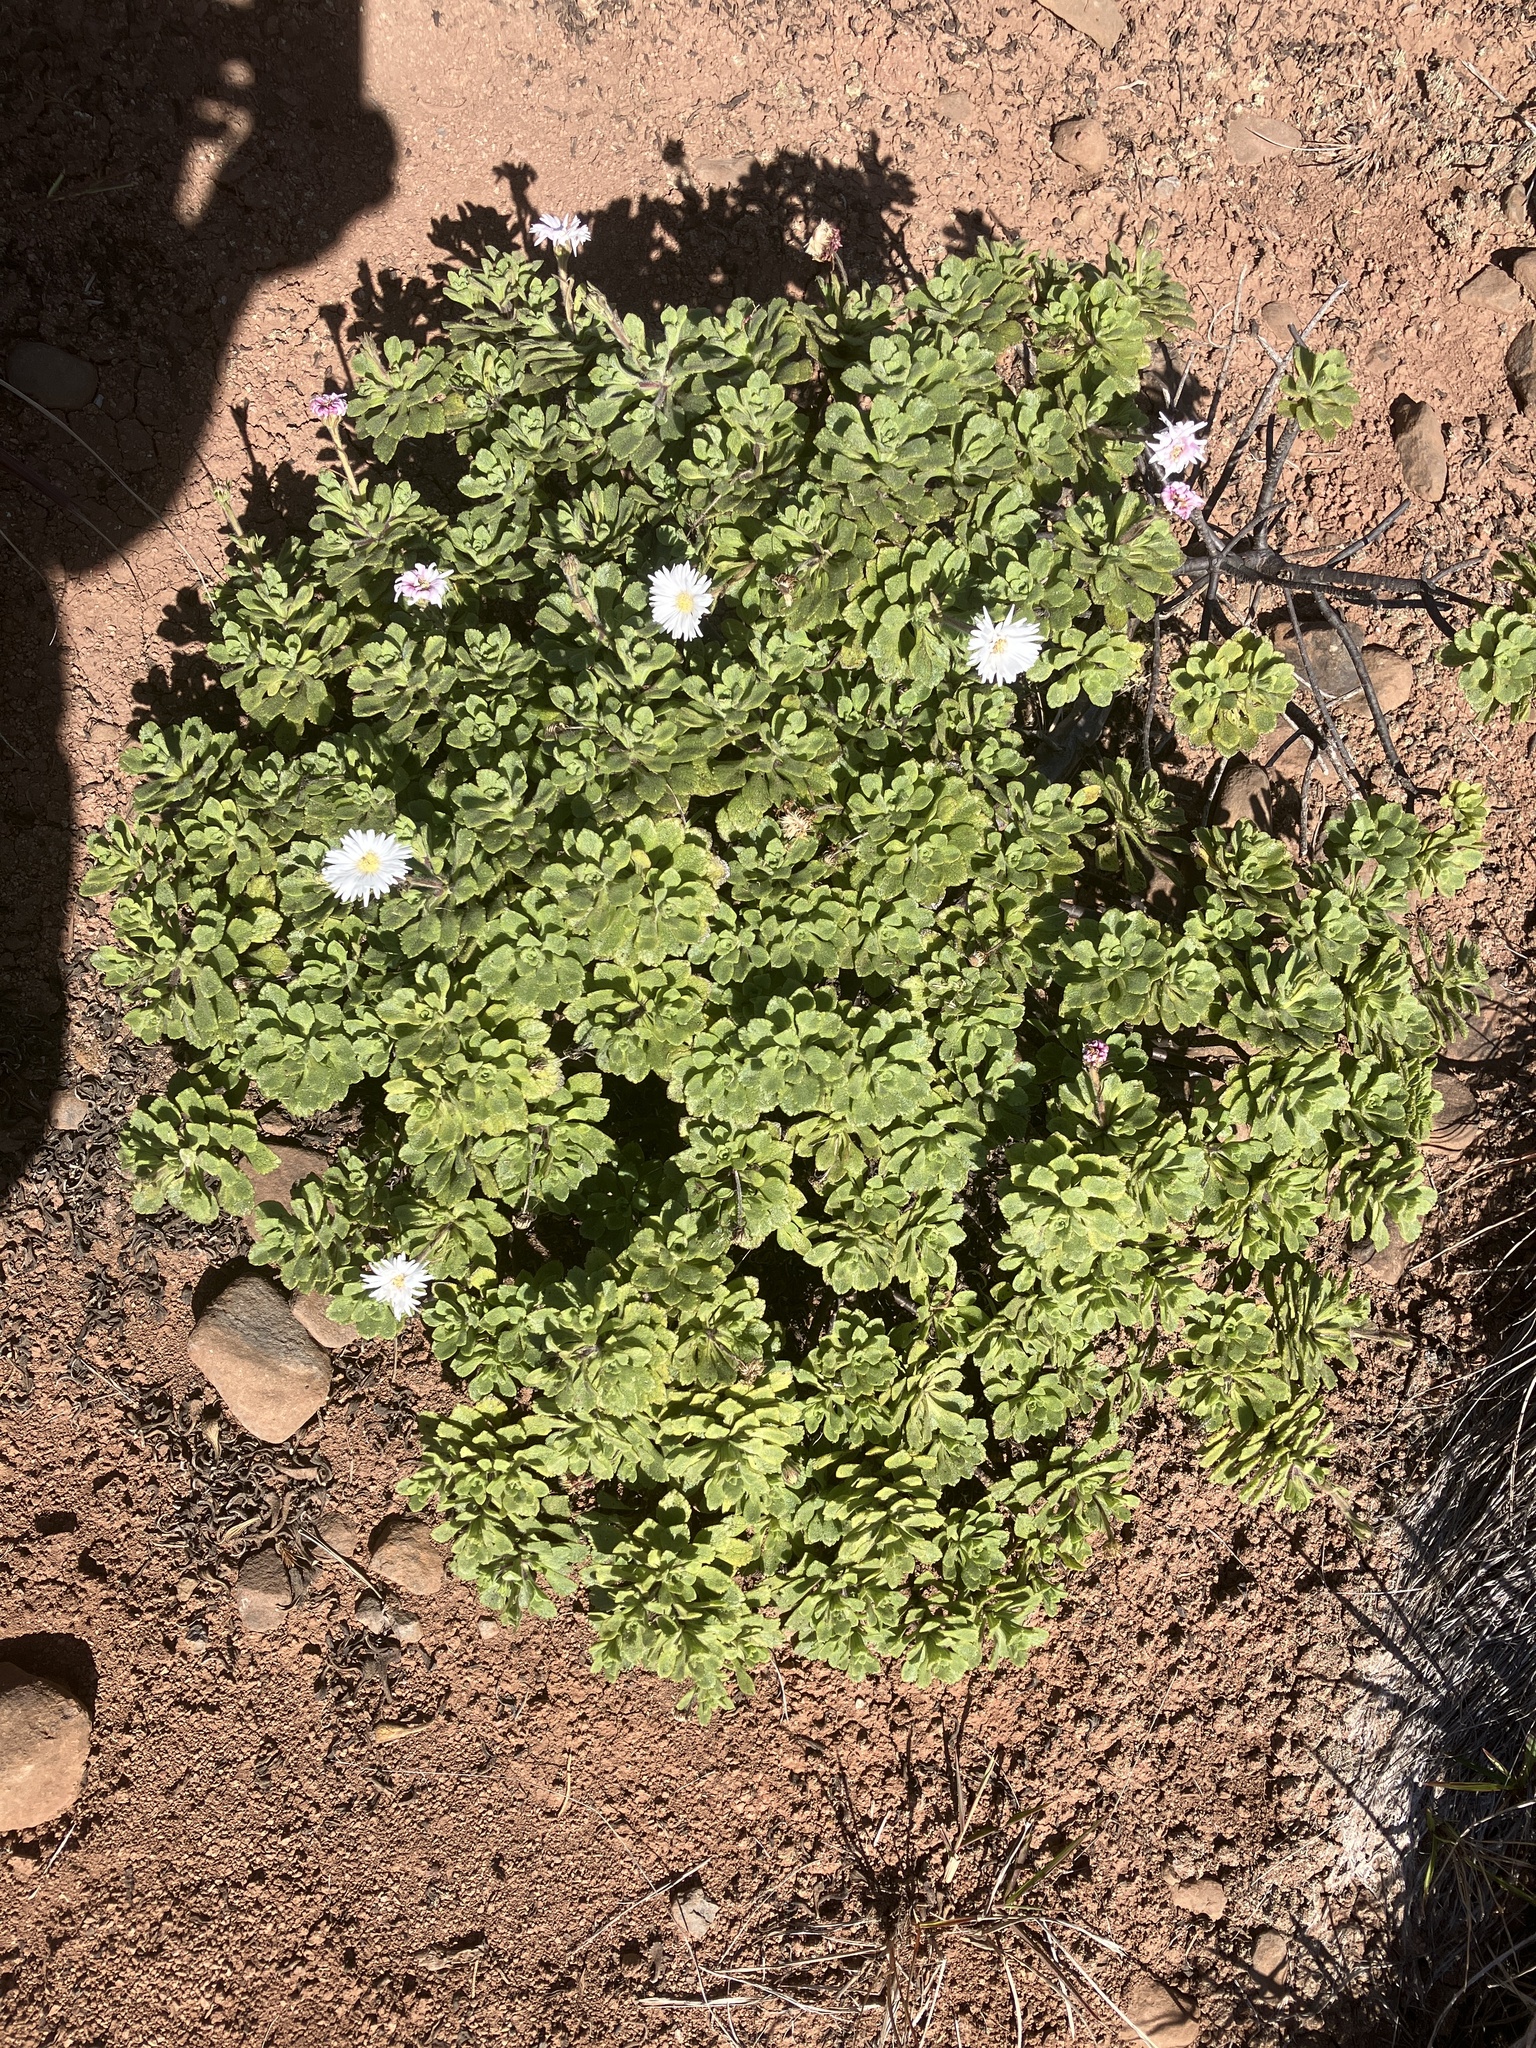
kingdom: Plantae
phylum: Tracheophyta
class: Magnoliopsida
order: Asterales
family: Asteraceae
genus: Commidendrum
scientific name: Commidendrum rugosum
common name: Scrubwood
